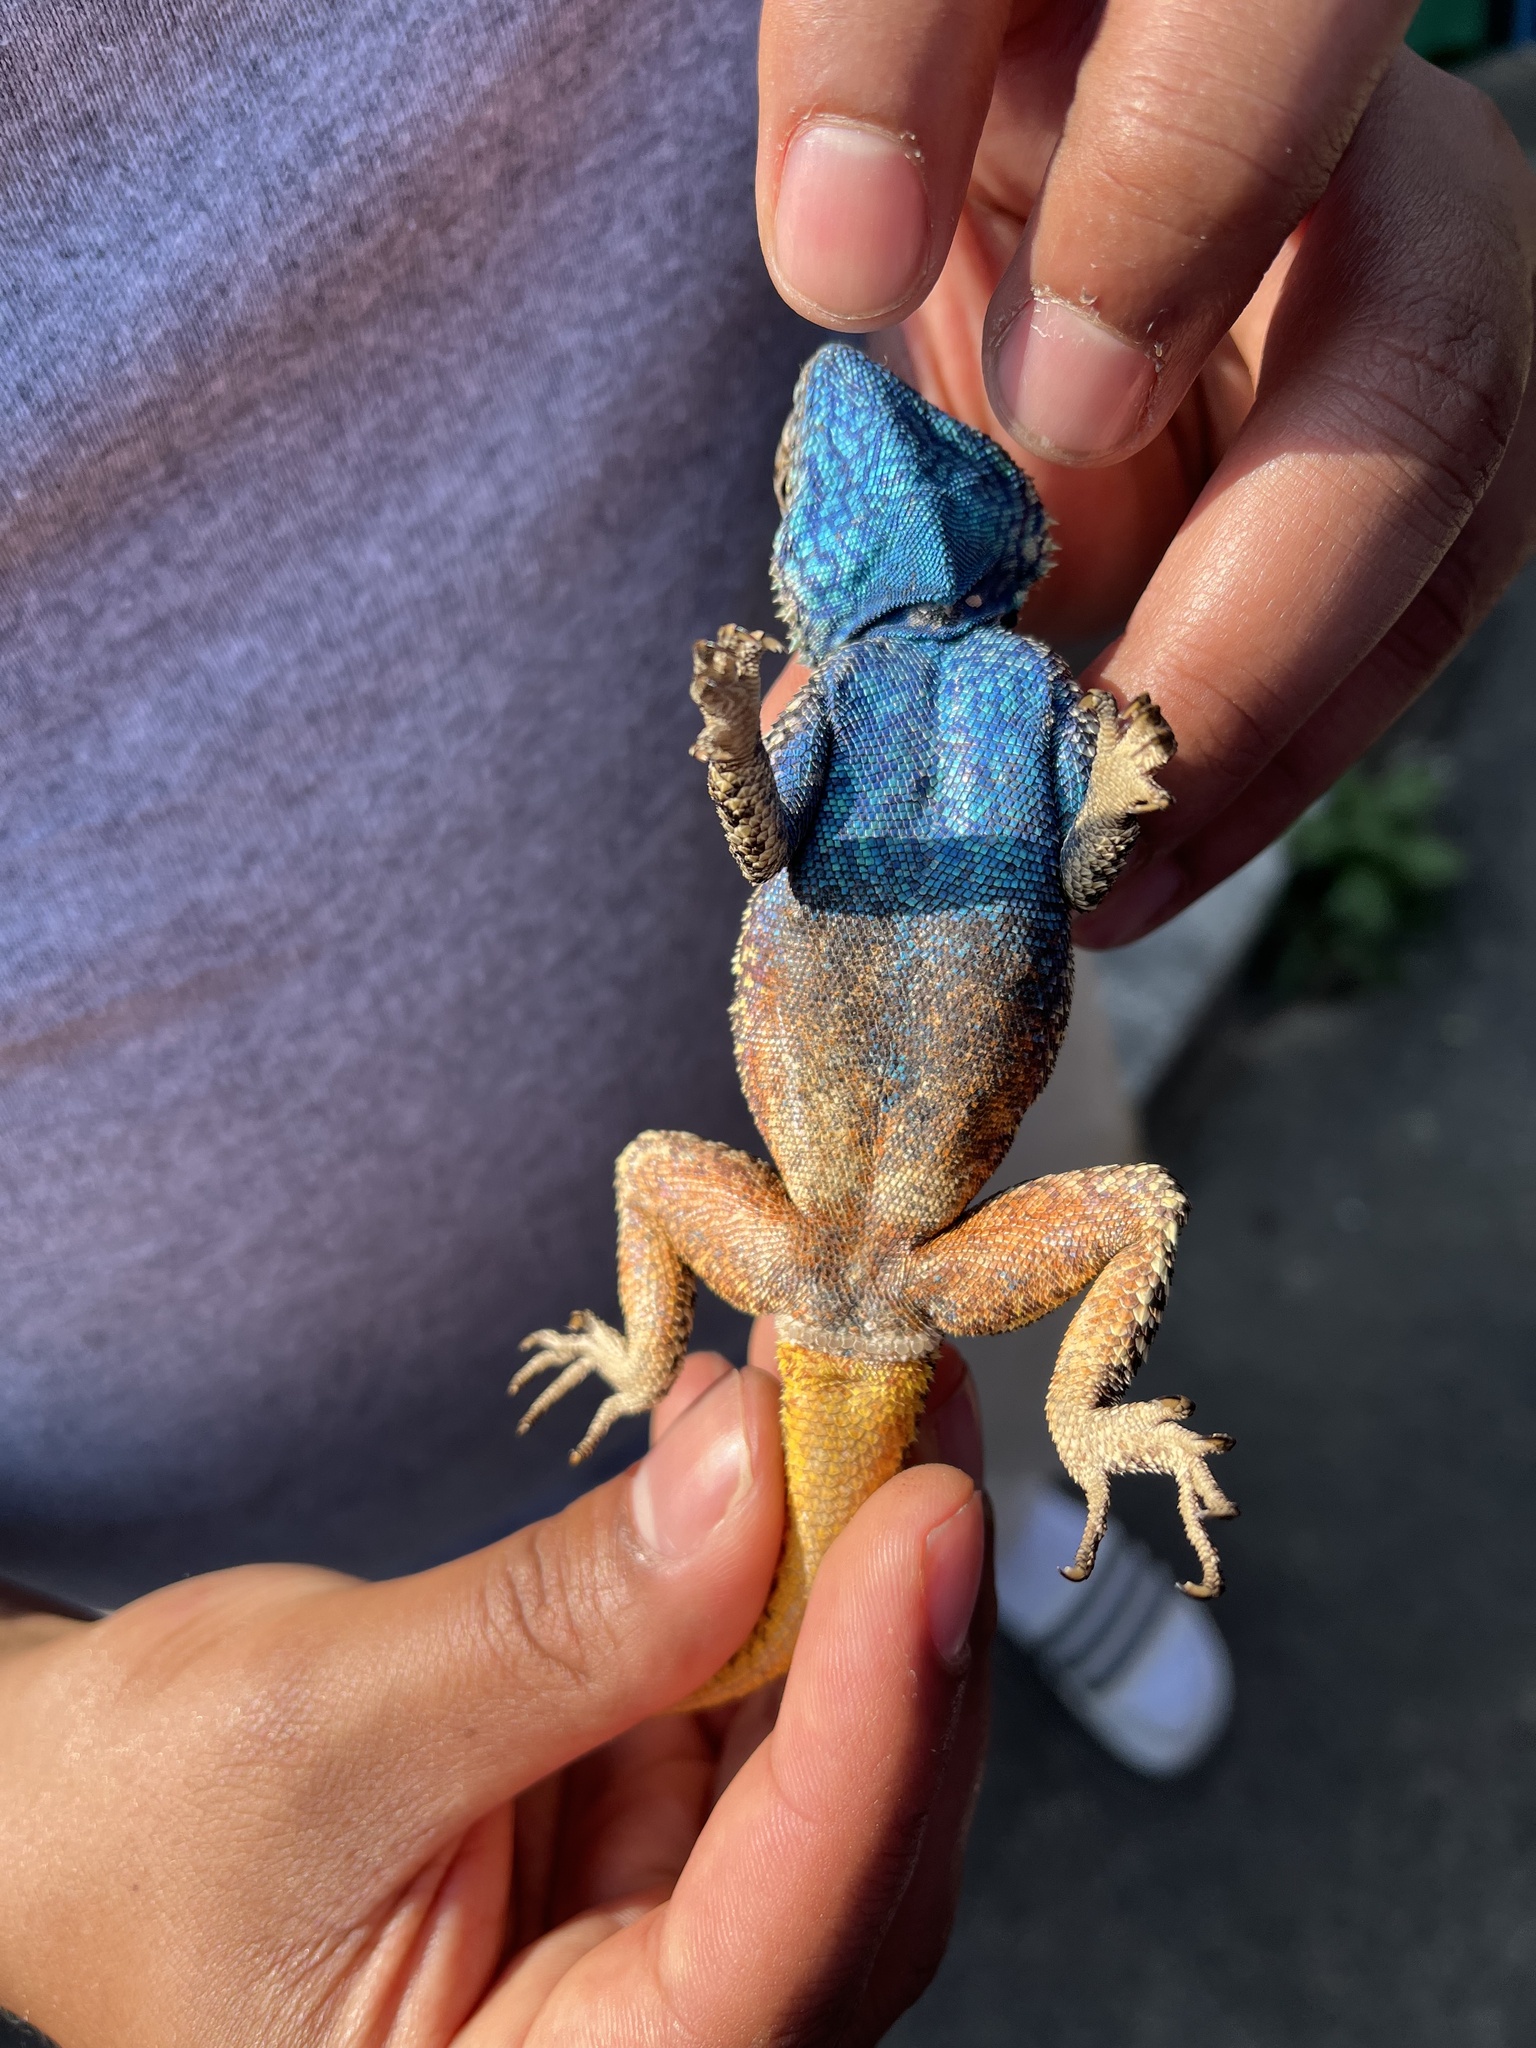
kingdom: Animalia
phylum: Chordata
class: Squamata
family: Agamidae
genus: Agama
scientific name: Agama atra
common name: Southern african rock agama
